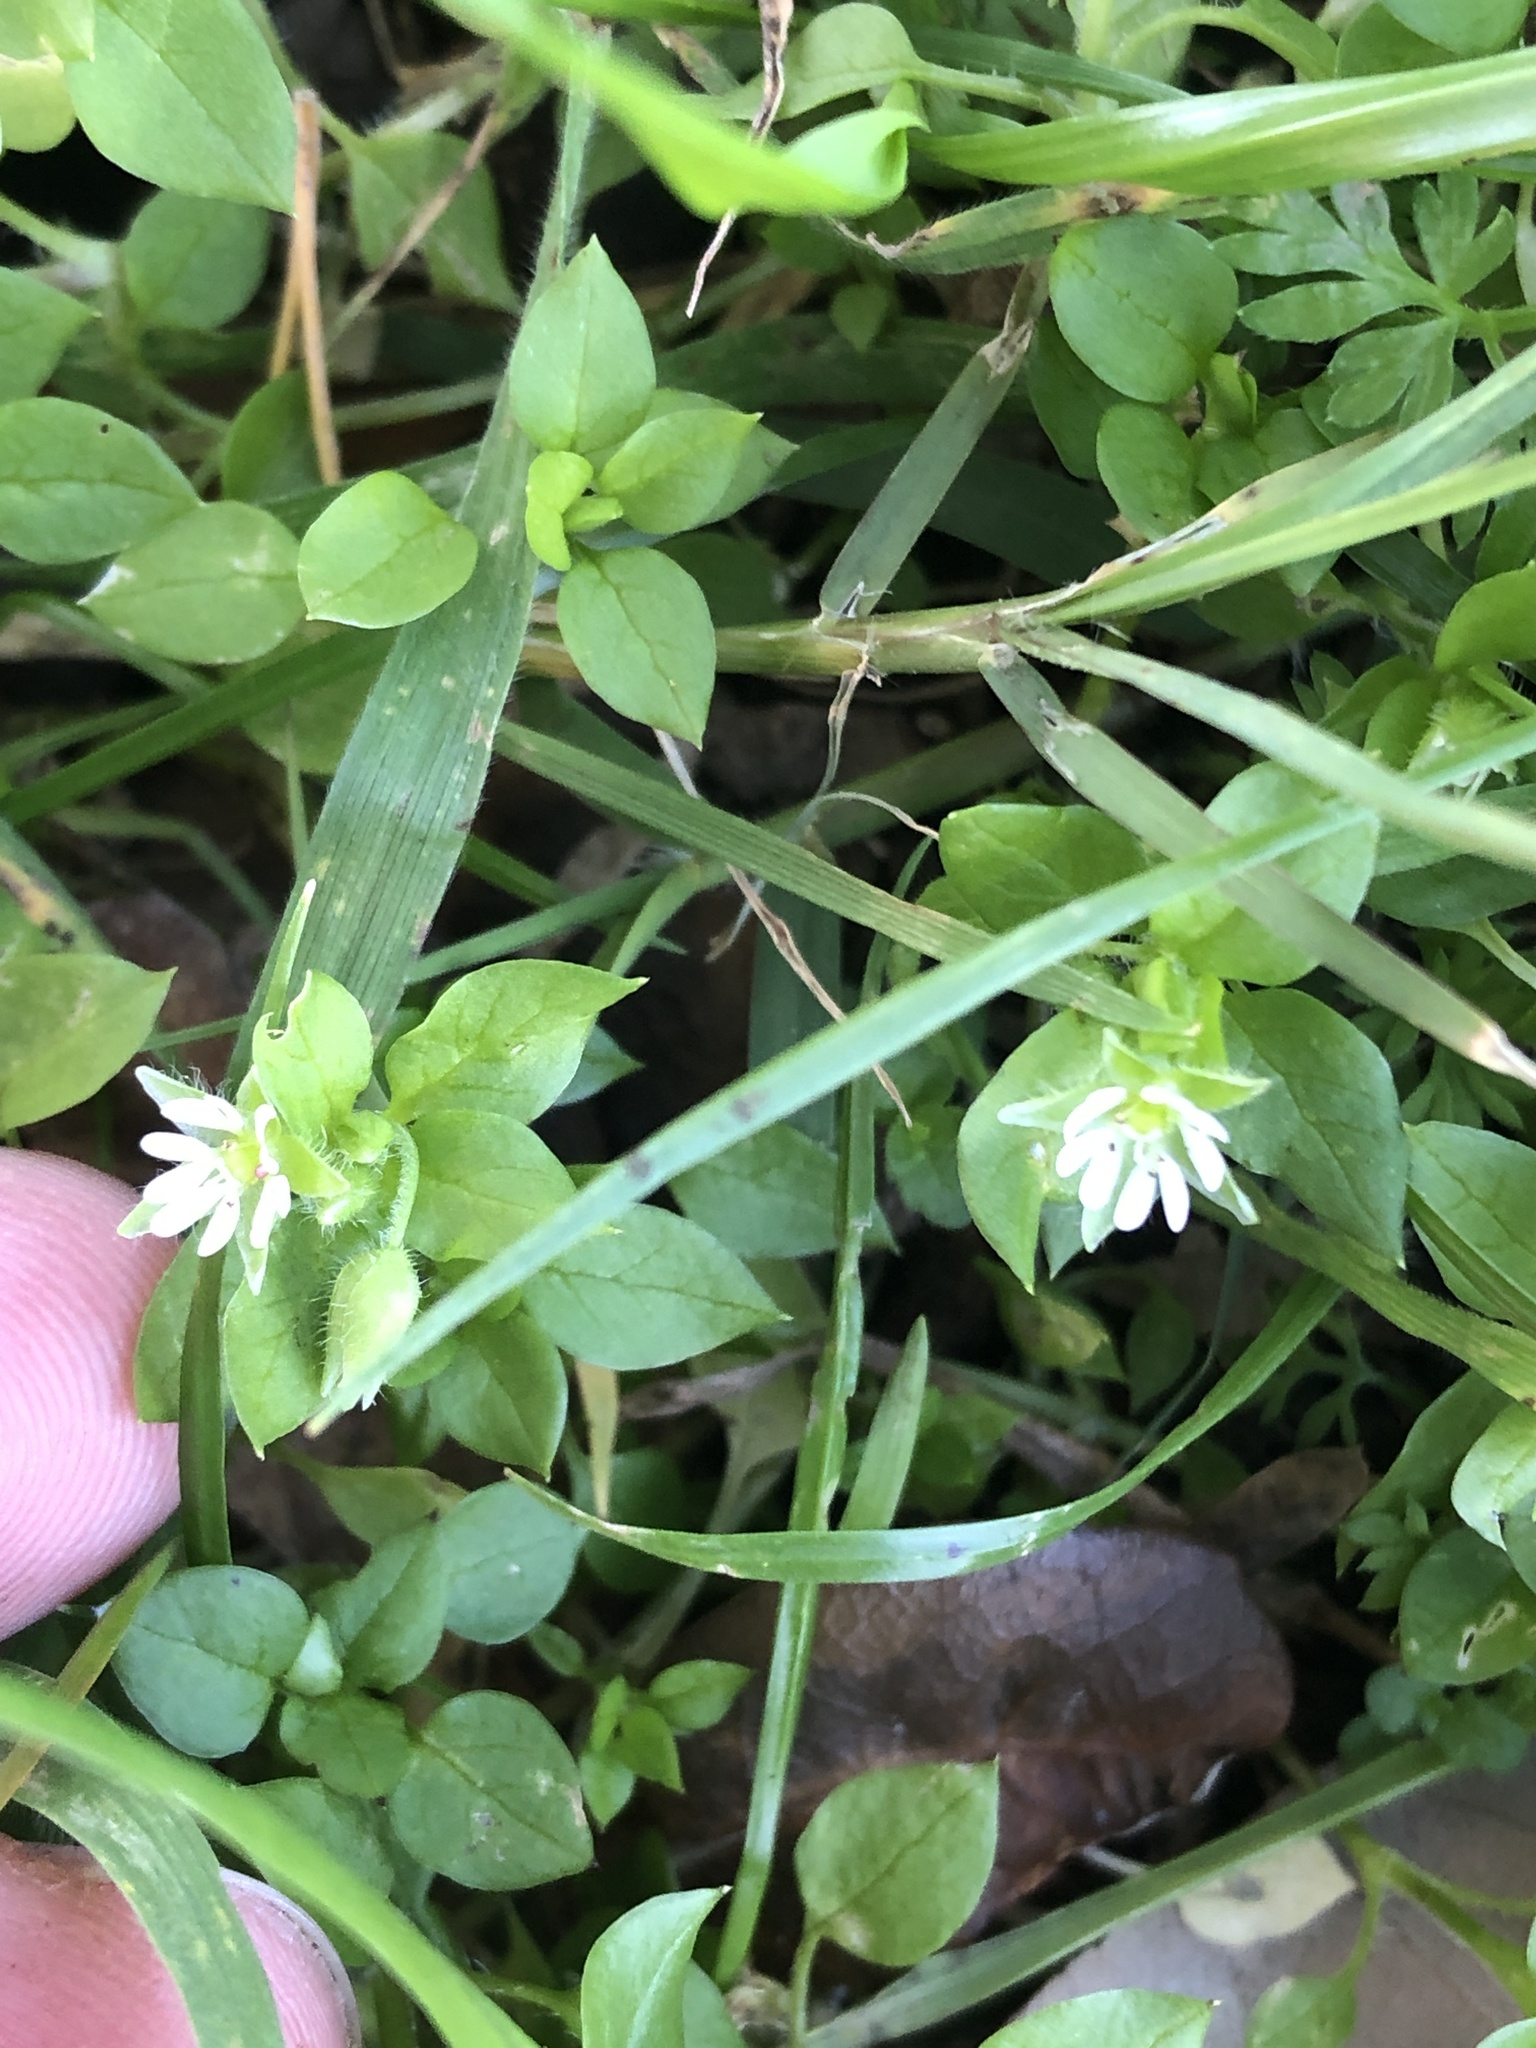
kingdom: Plantae
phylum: Tracheophyta
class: Magnoliopsida
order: Caryophyllales
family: Caryophyllaceae
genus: Stellaria
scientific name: Stellaria media
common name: Common chickweed
